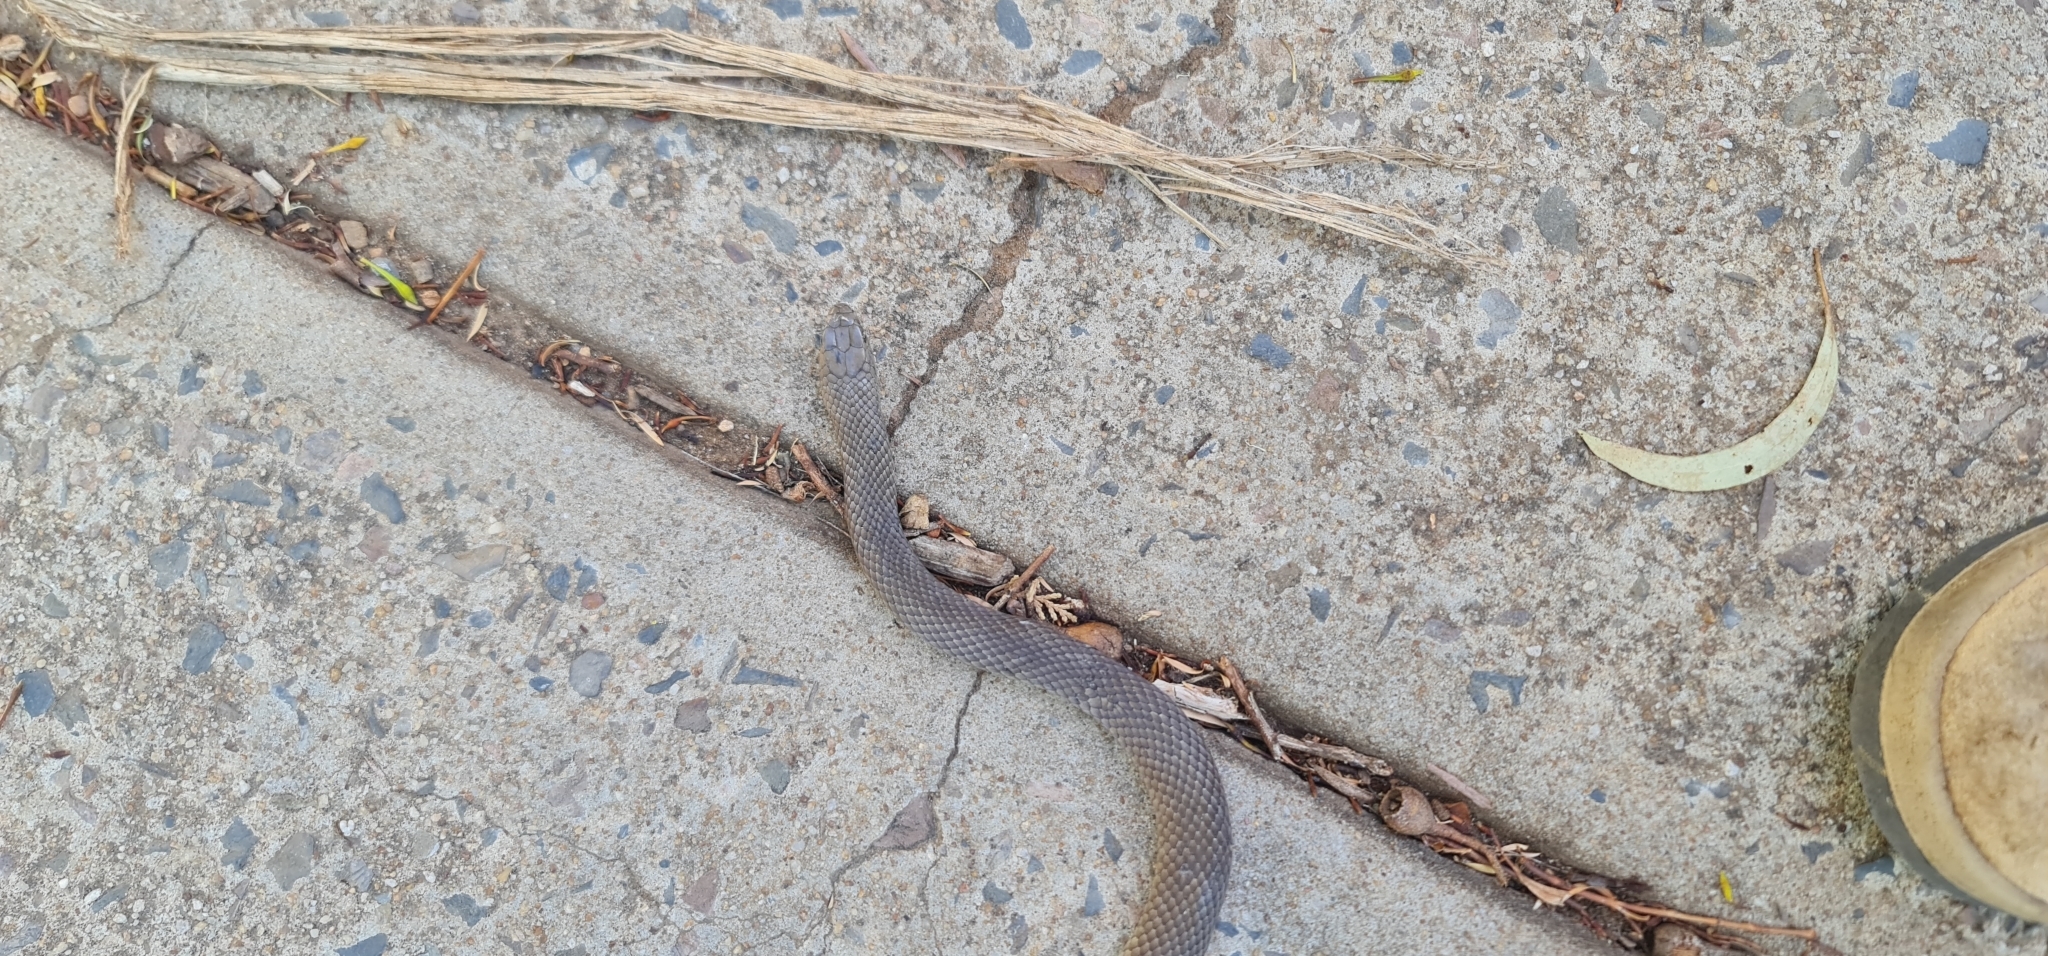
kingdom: Animalia
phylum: Chordata
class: Squamata
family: Elapidae
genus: Pseudonaja
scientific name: Pseudonaja textilis
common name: Eastern brown snake
